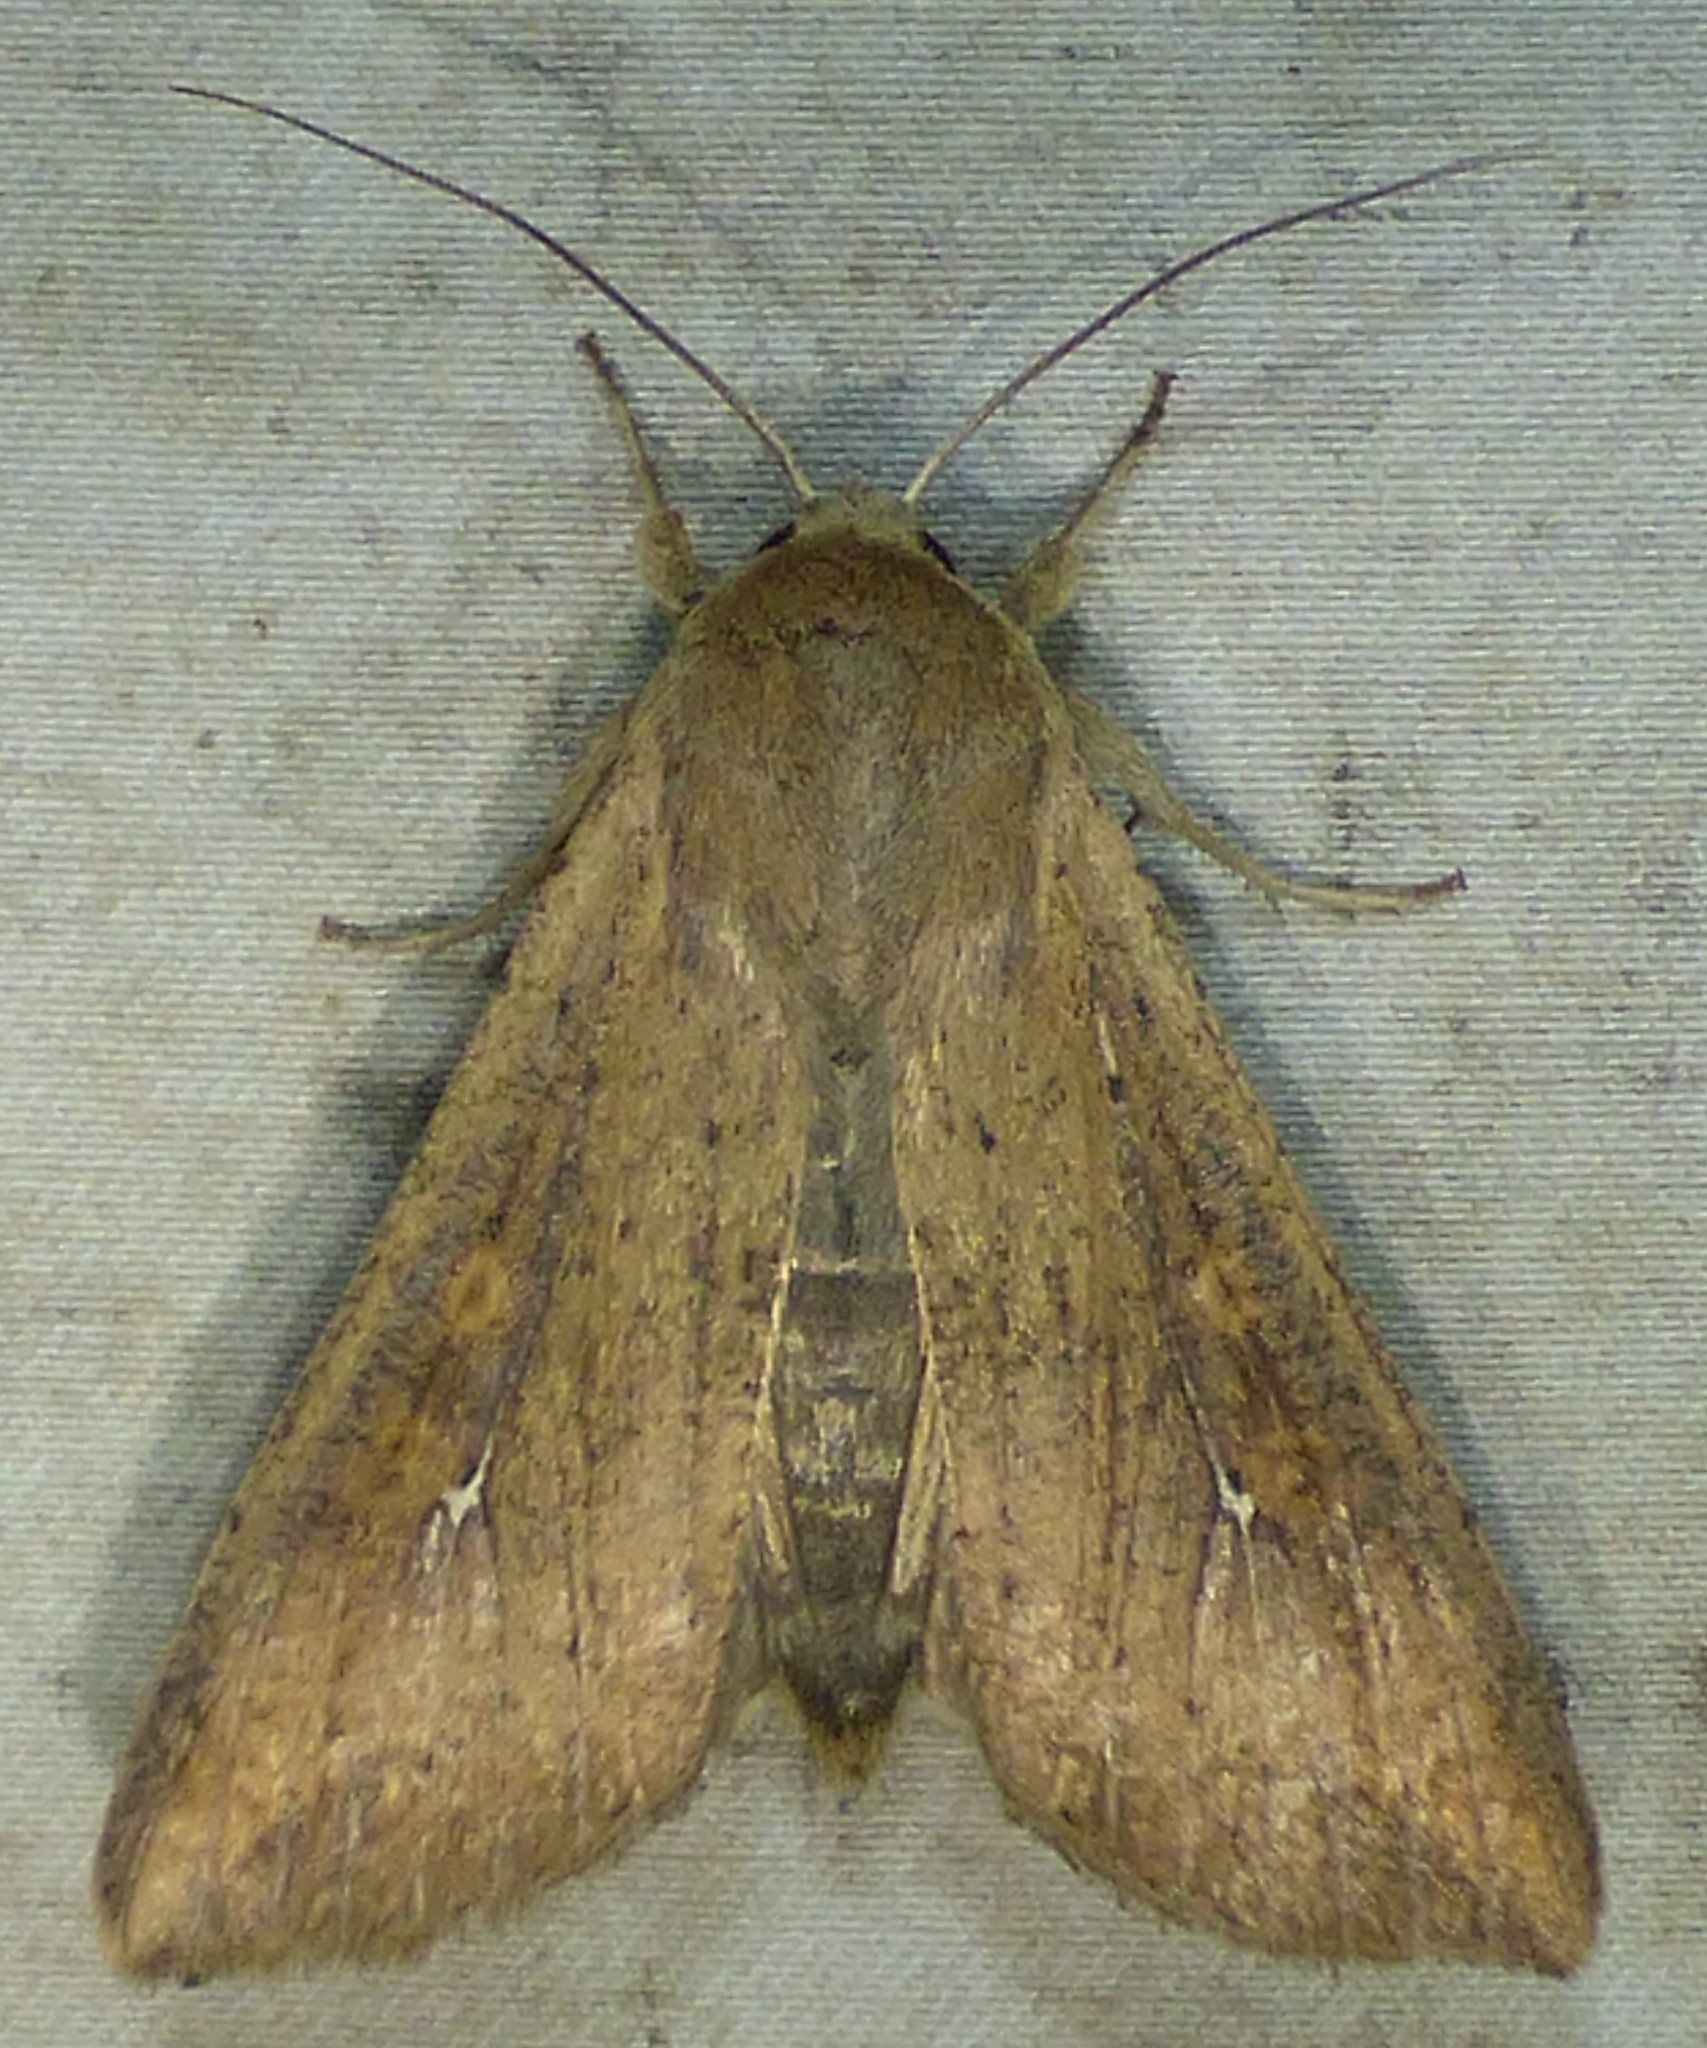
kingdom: Animalia
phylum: Arthropoda
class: Insecta
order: Lepidoptera
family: Noctuidae
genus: Mythimna
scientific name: Mythimna unipuncta
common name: White-speck
